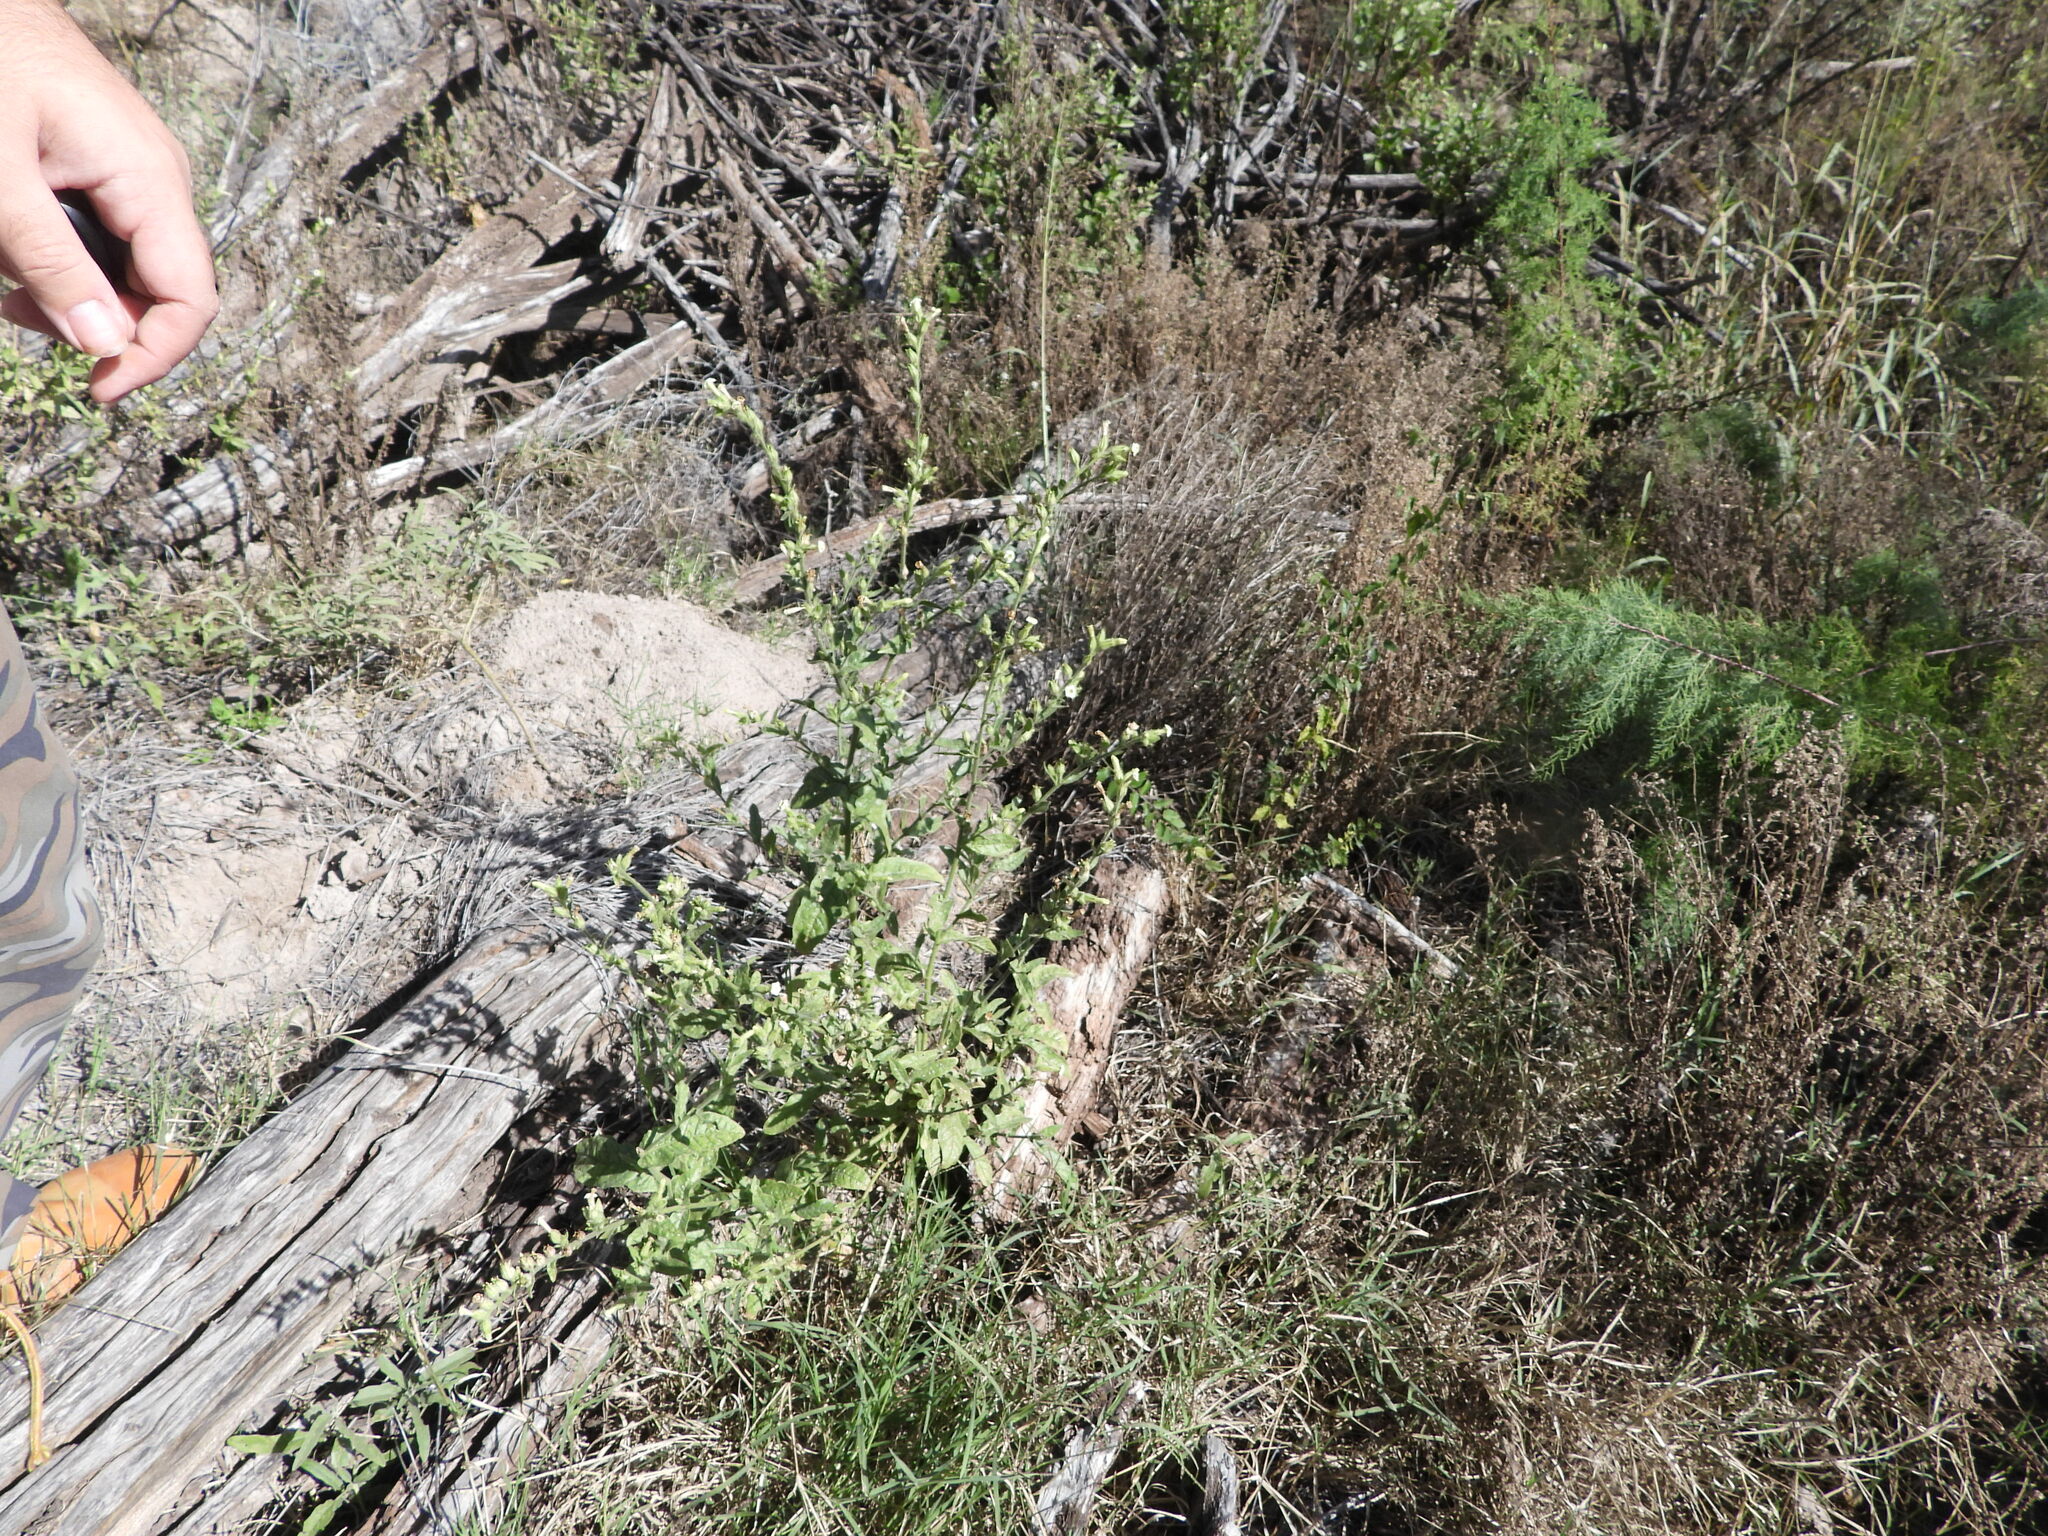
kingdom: Plantae
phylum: Tracheophyta
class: Magnoliopsida
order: Solanales
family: Solanaceae
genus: Nicotiana
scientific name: Nicotiana obtusifolia
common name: Desert tobacco
